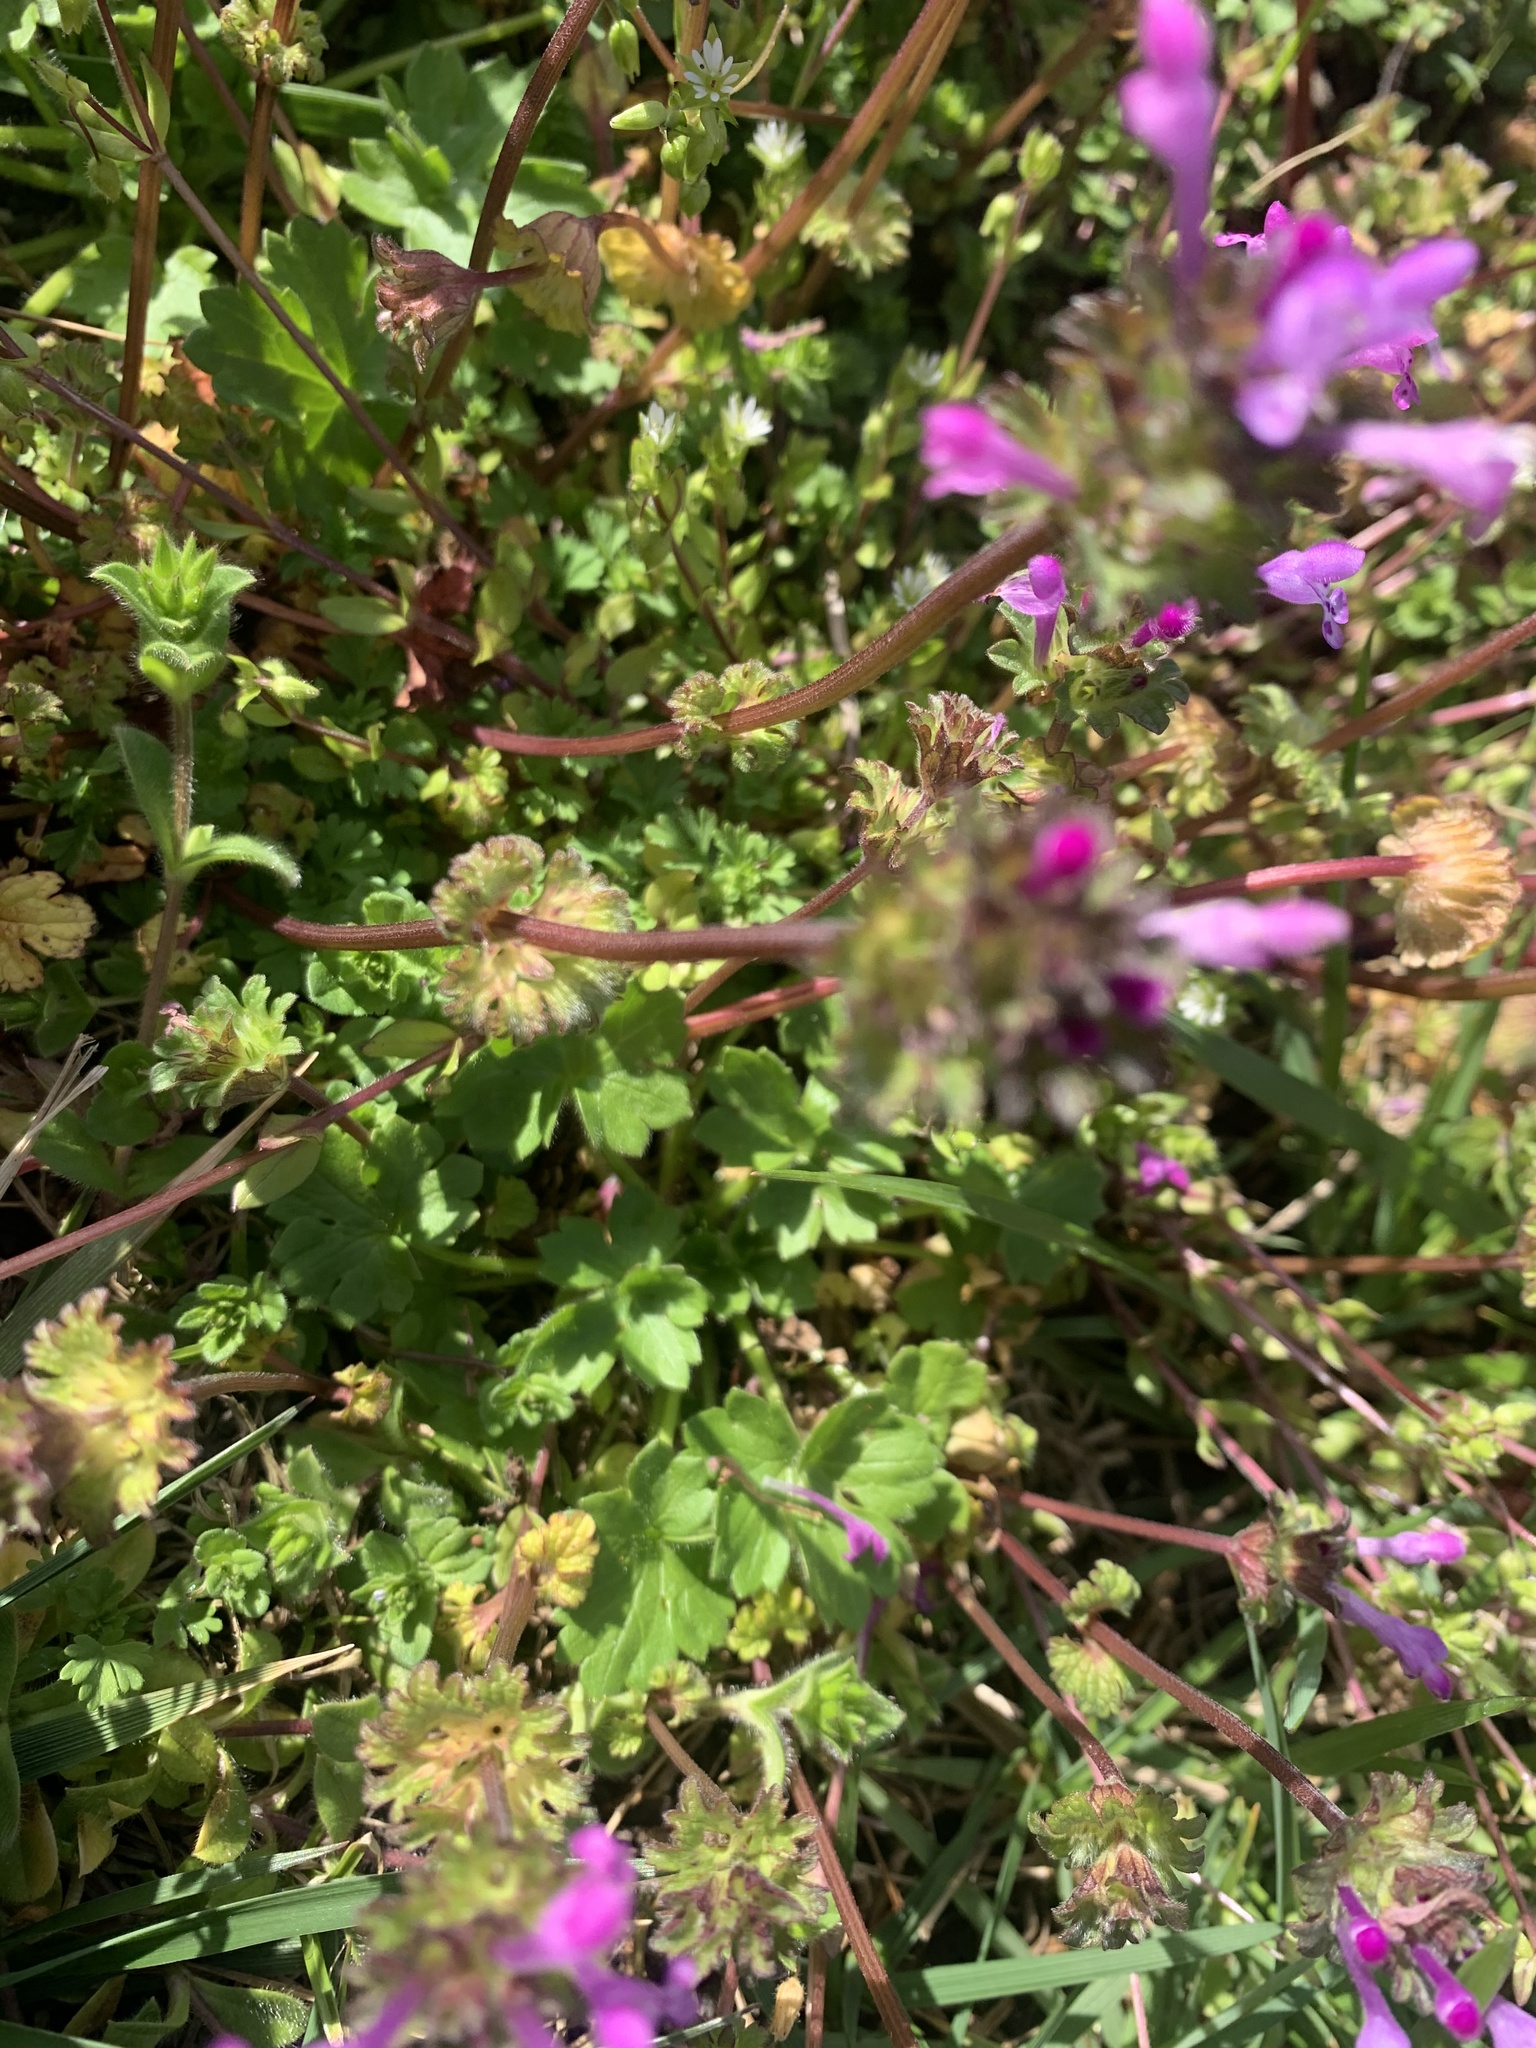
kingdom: Plantae
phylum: Tracheophyta
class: Magnoliopsida
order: Lamiales
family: Lamiaceae
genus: Lamium
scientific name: Lamium amplexicaule
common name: Henbit dead-nettle
